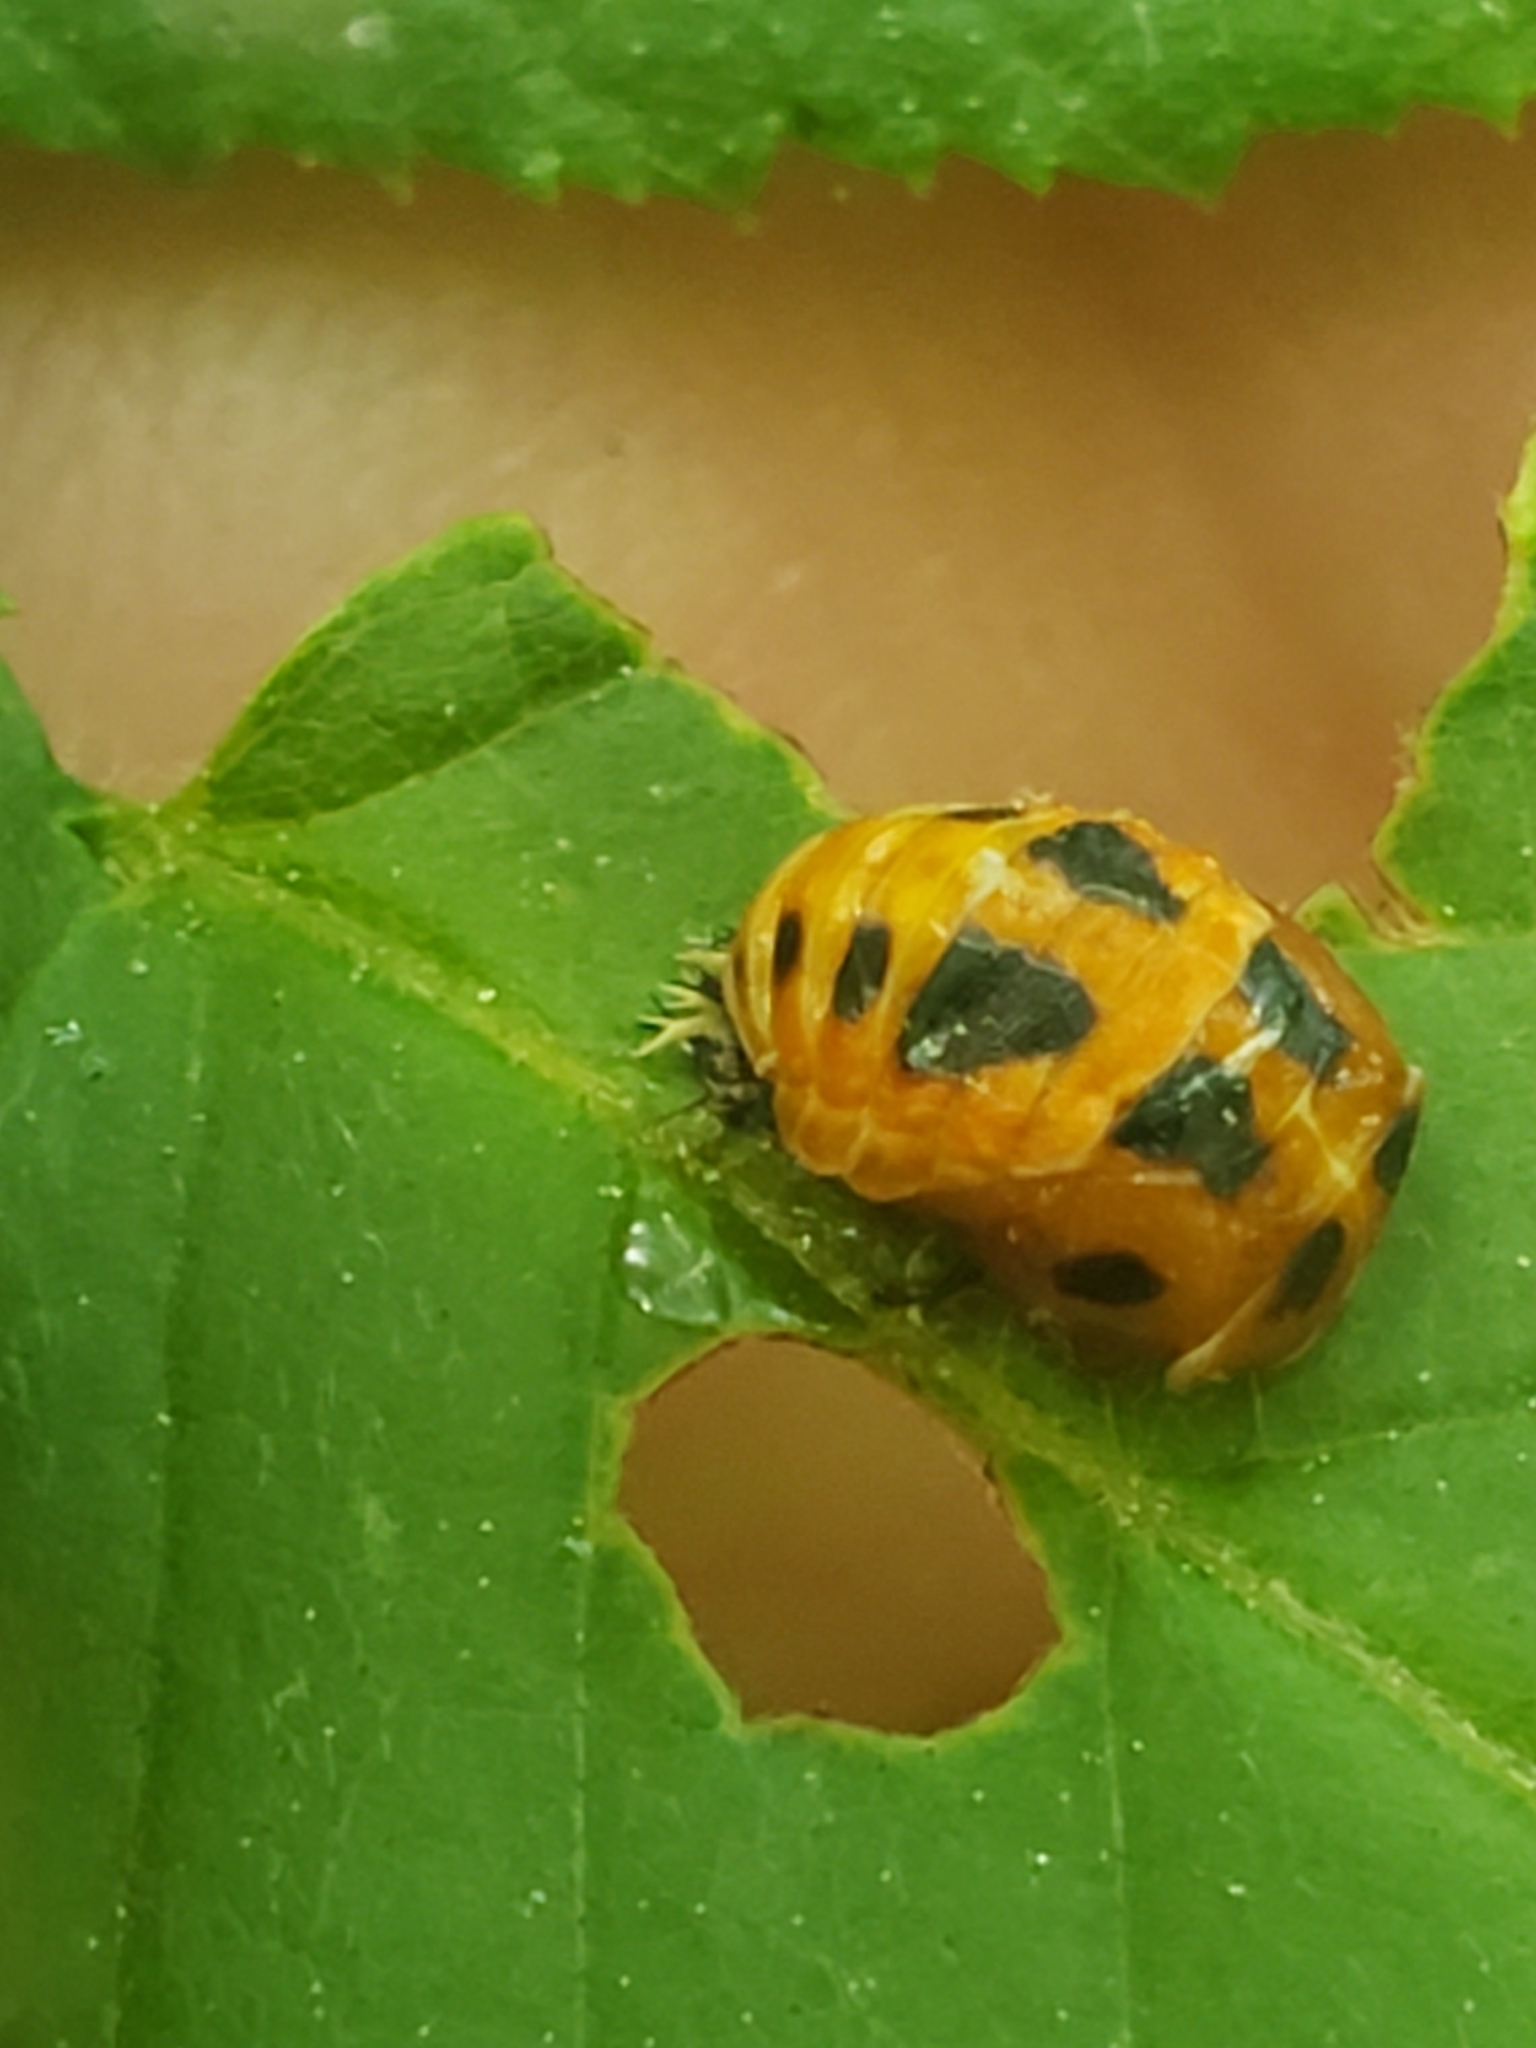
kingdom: Animalia
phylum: Arthropoda
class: Insecta
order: Coleoptera
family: Coccinellidae
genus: Harmonia
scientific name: Harmonia axyridis
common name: Harlequin ladybird
